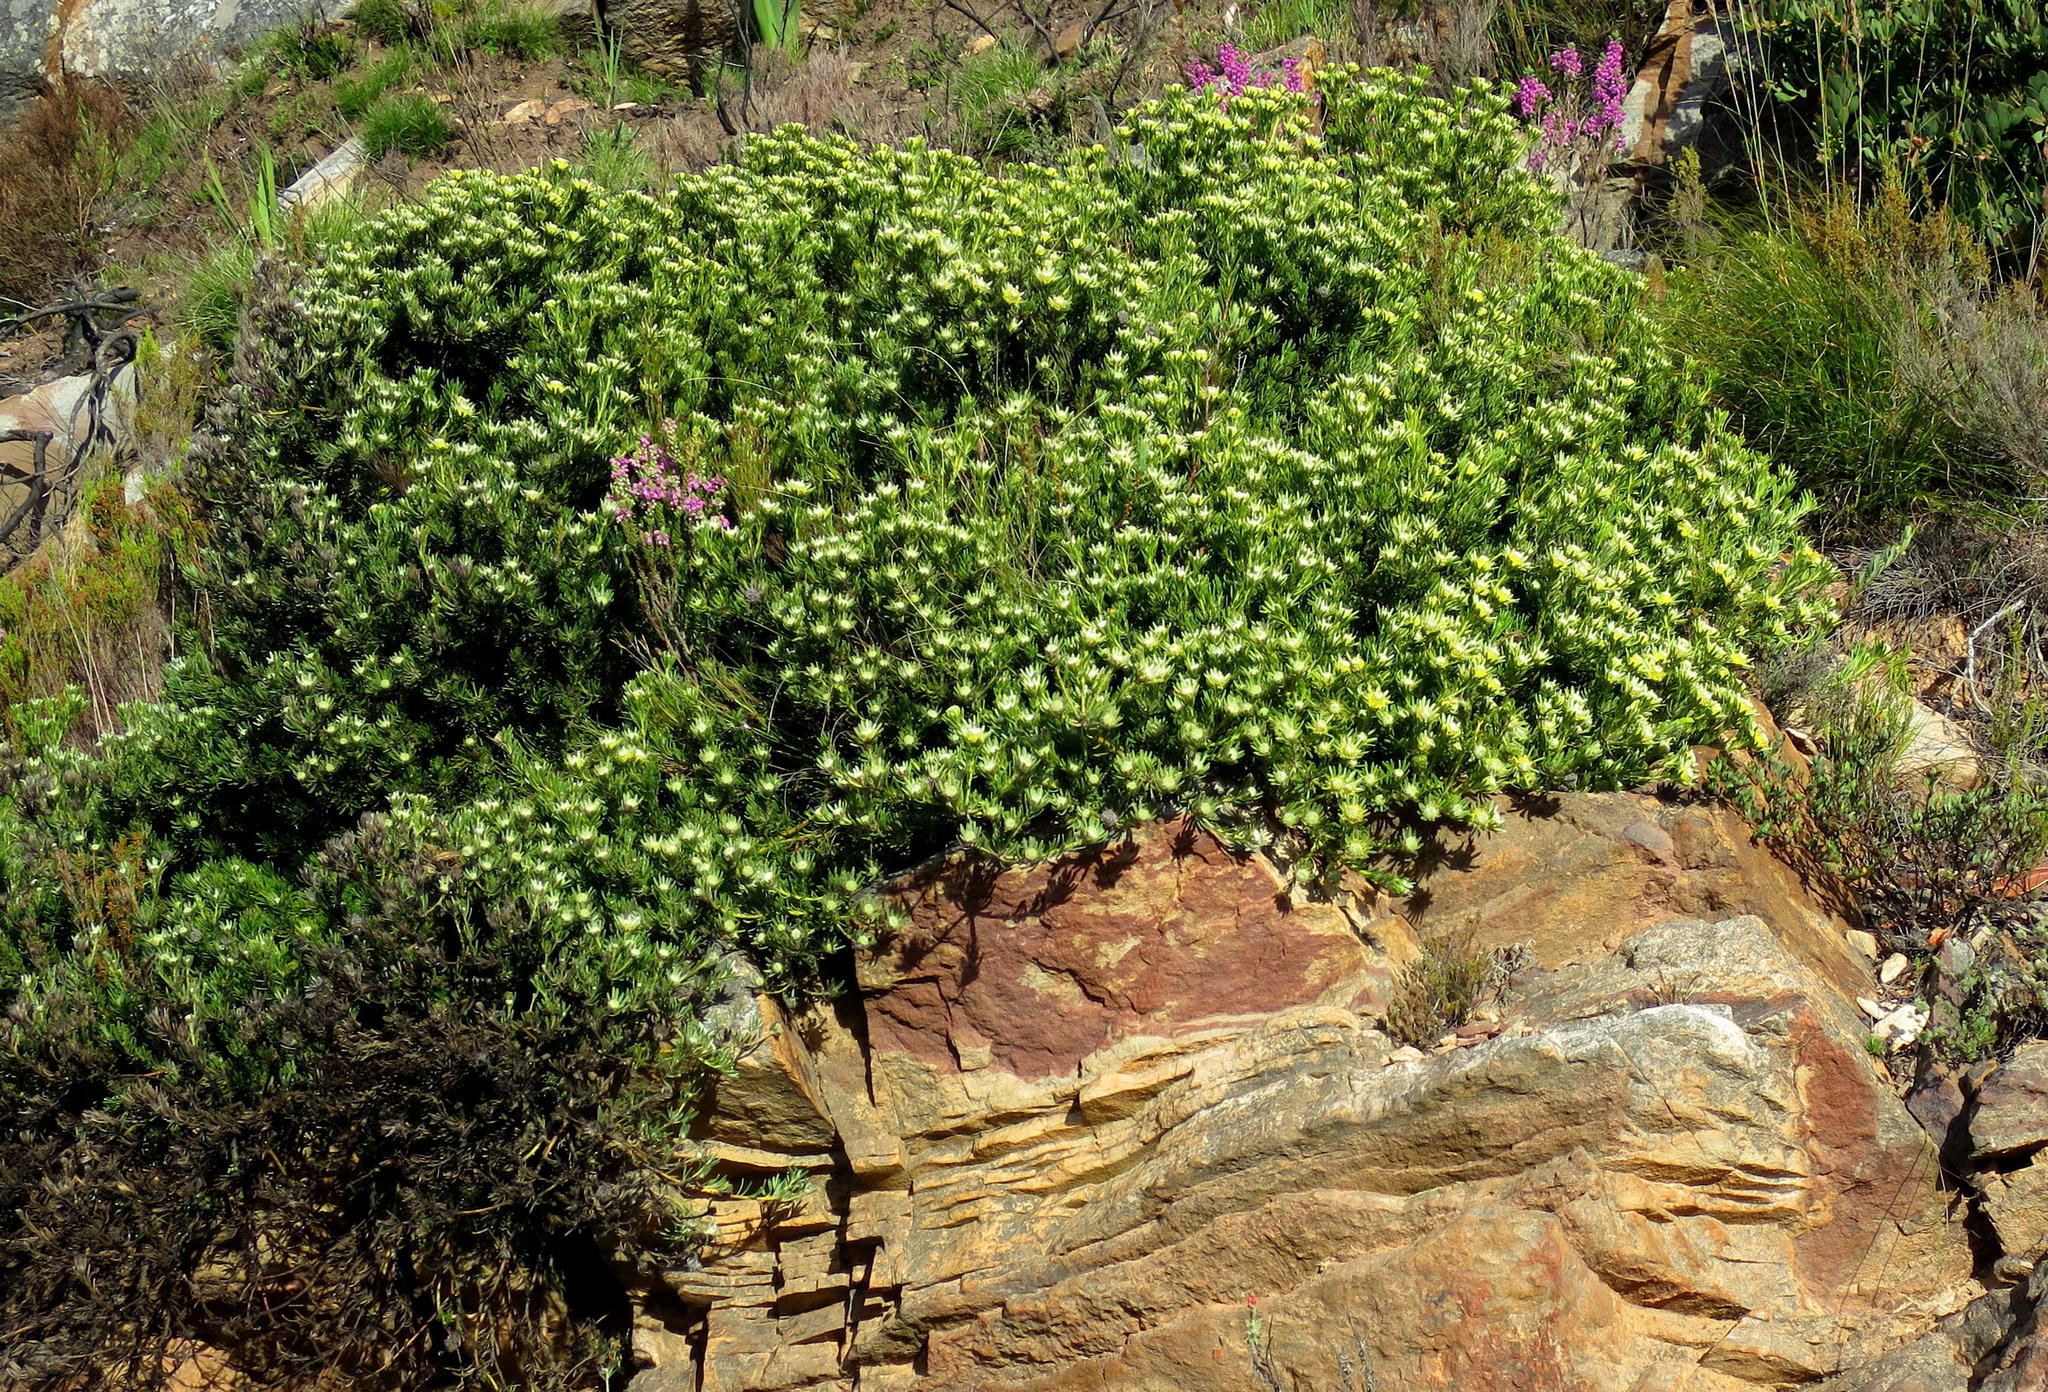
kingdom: Plantae
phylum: Tracheophyta
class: Magnoliopsida
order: Proteales
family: Proteaceae
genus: Leucadendron
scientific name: Leucadendron dregei
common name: Summit conebush
